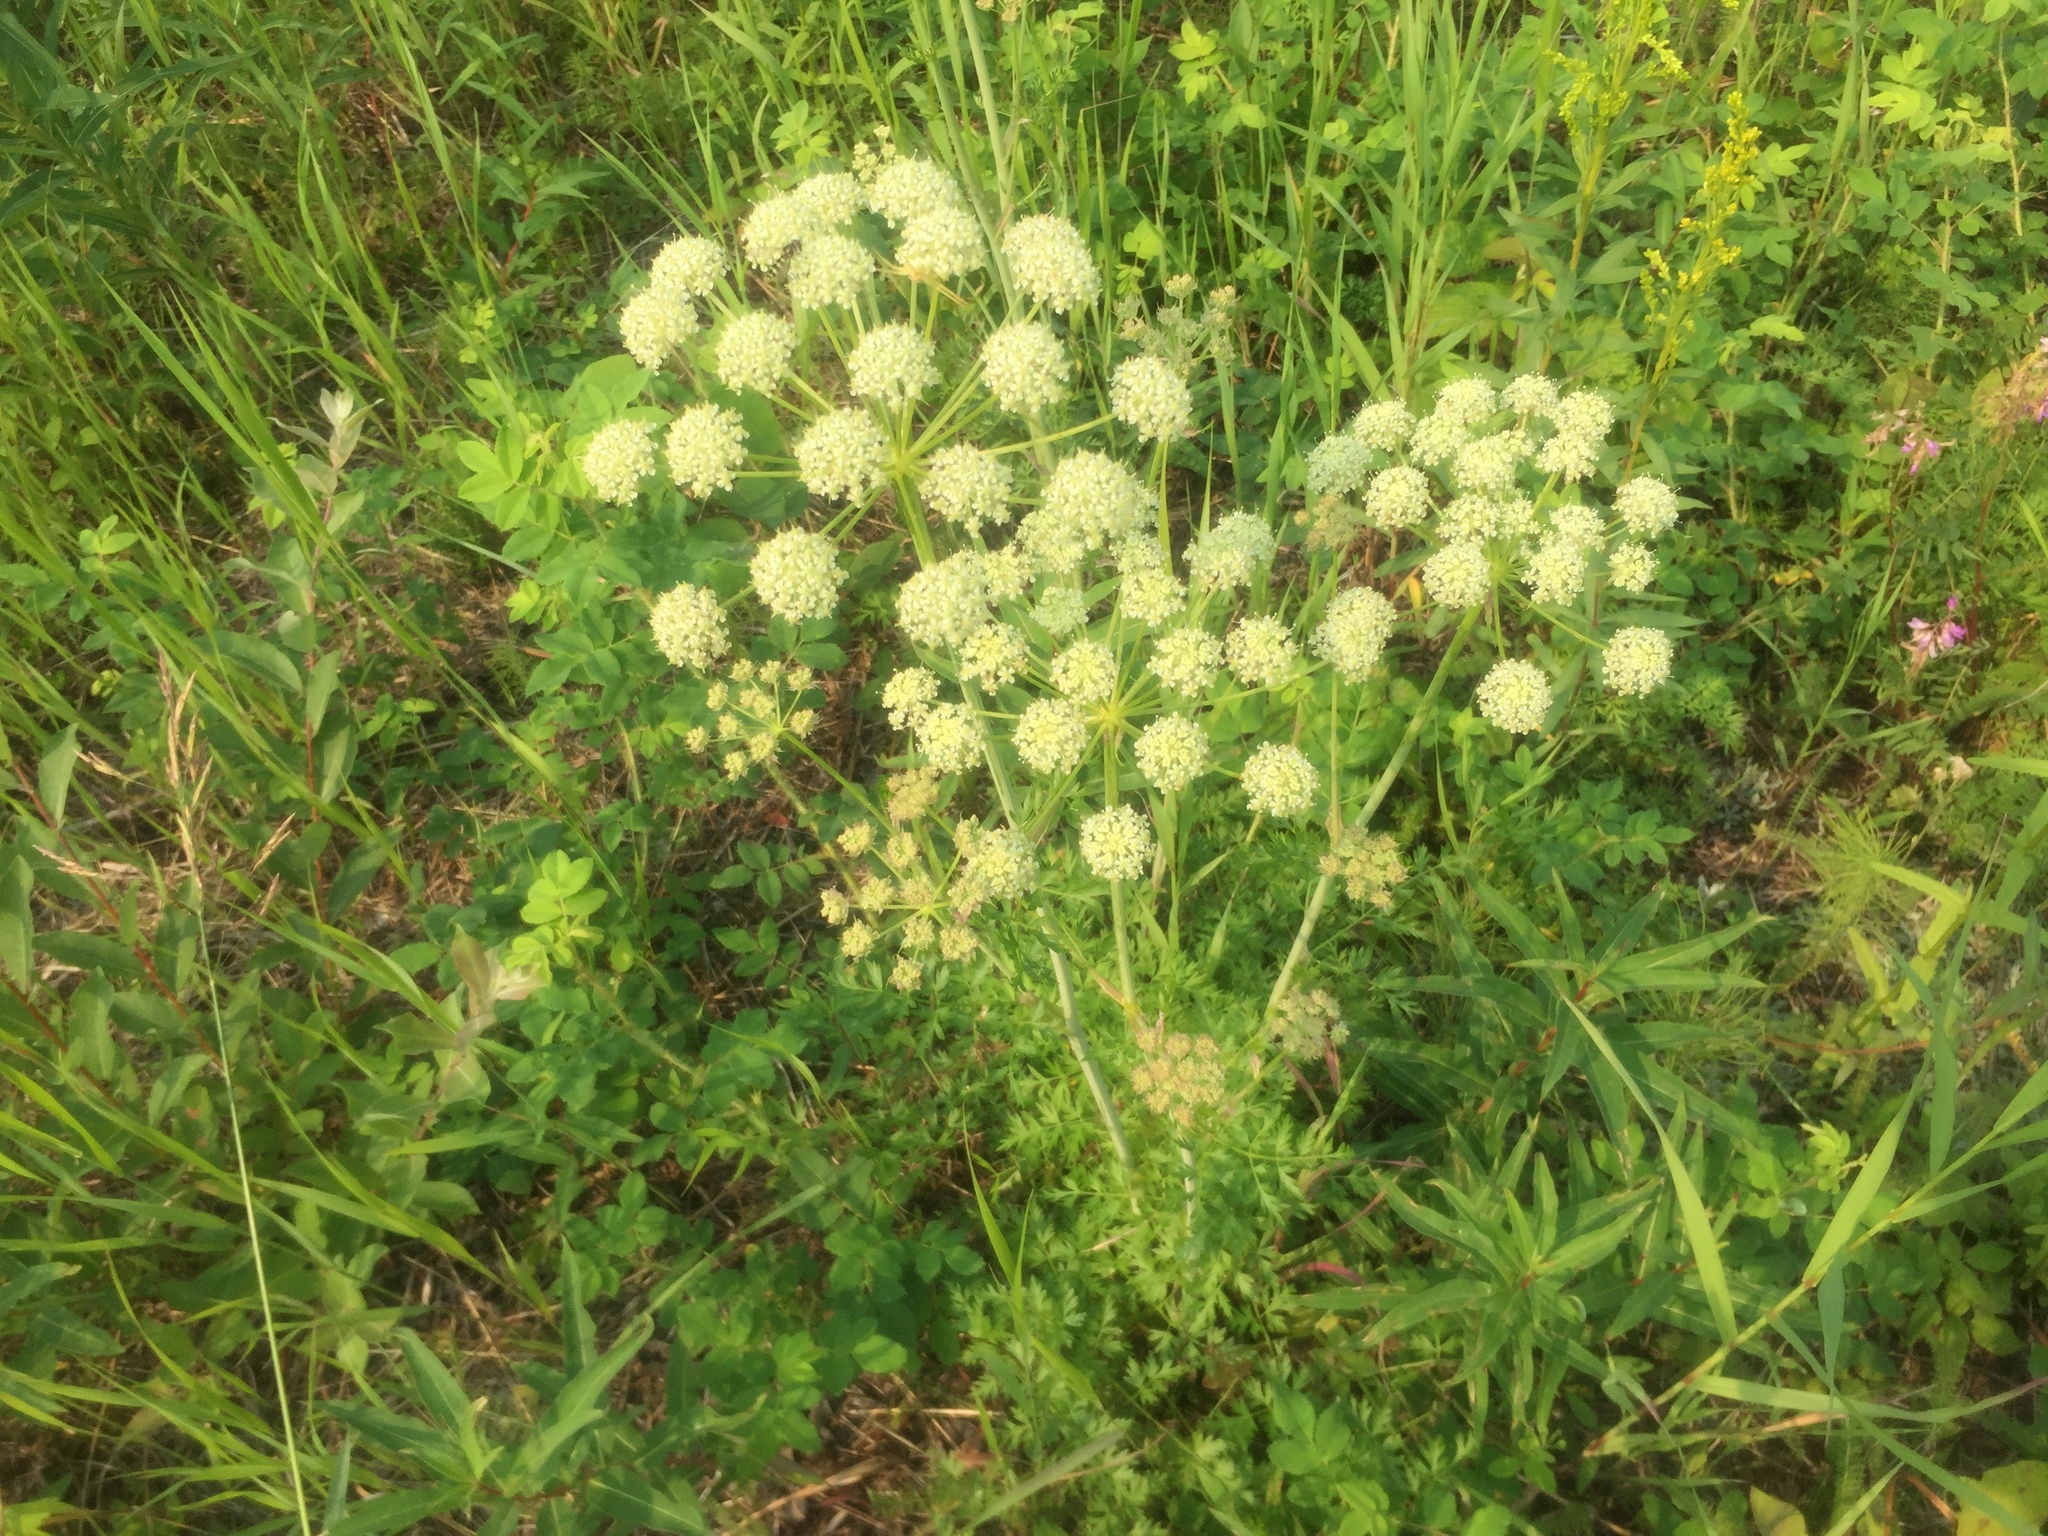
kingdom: Plantae
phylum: Tracheophyta
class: Magnoliopsida
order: Apiales
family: Apiaceae
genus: Cnidium
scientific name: Cnidium cnidiifolium
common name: Northern hemlock-parsley
